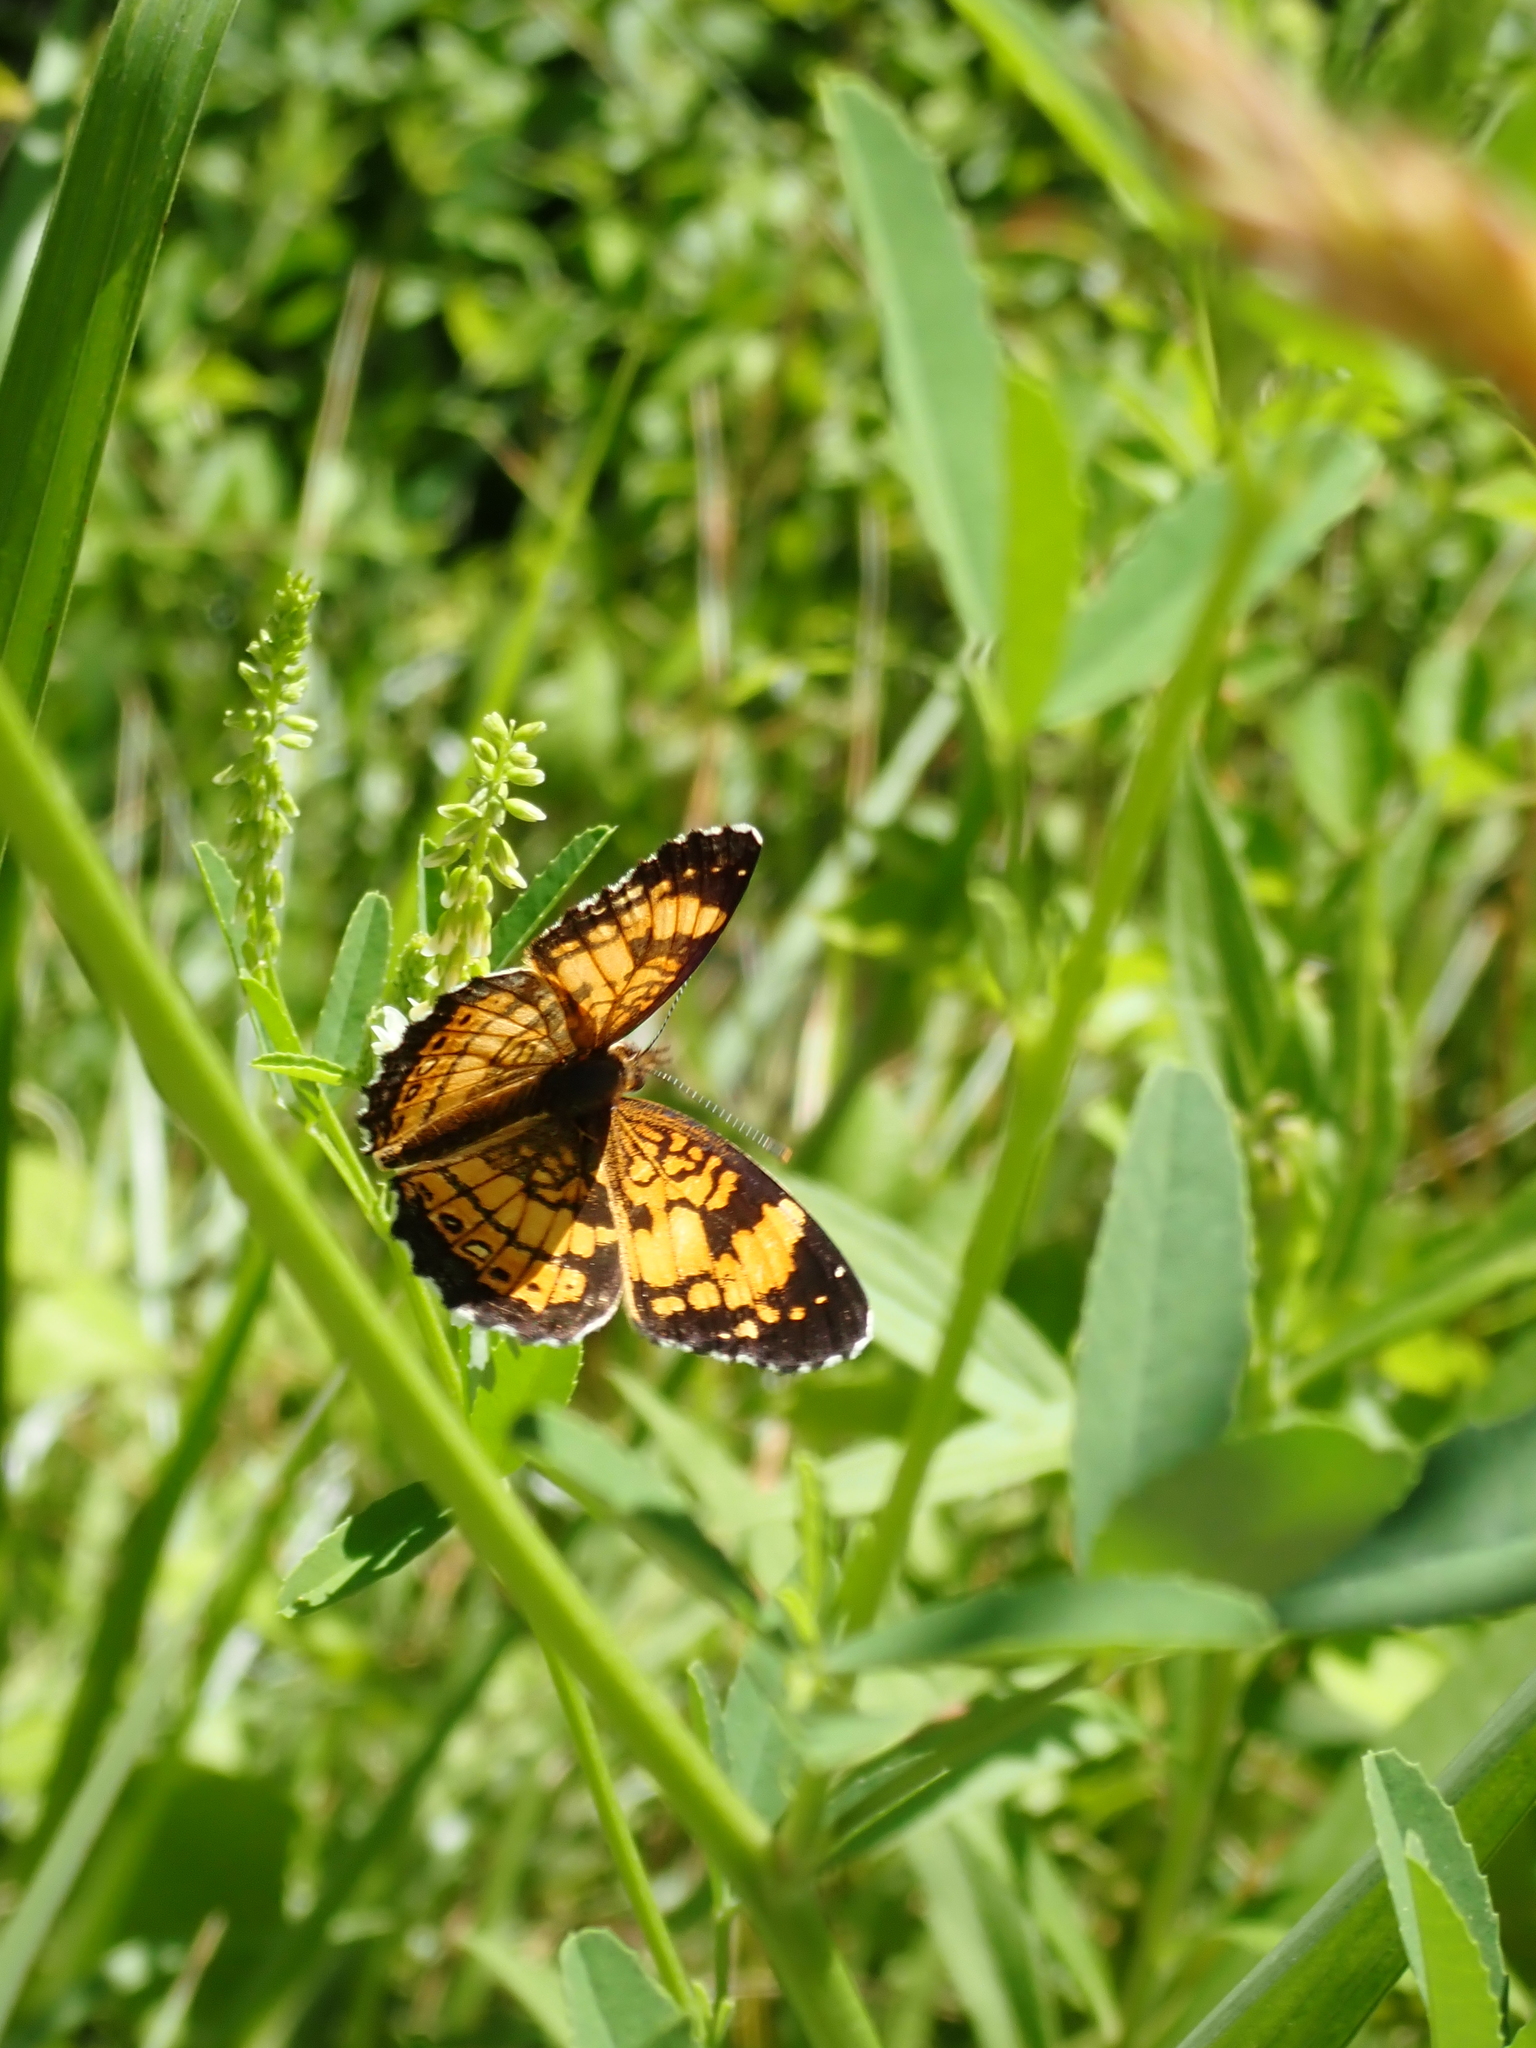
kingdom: Animalia
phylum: Arthropoda
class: Insecta
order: Lepidoptera
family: Nymphalidae
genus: Chlosyne
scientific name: Chlosyne nycteis
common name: Silvery checkerspot
